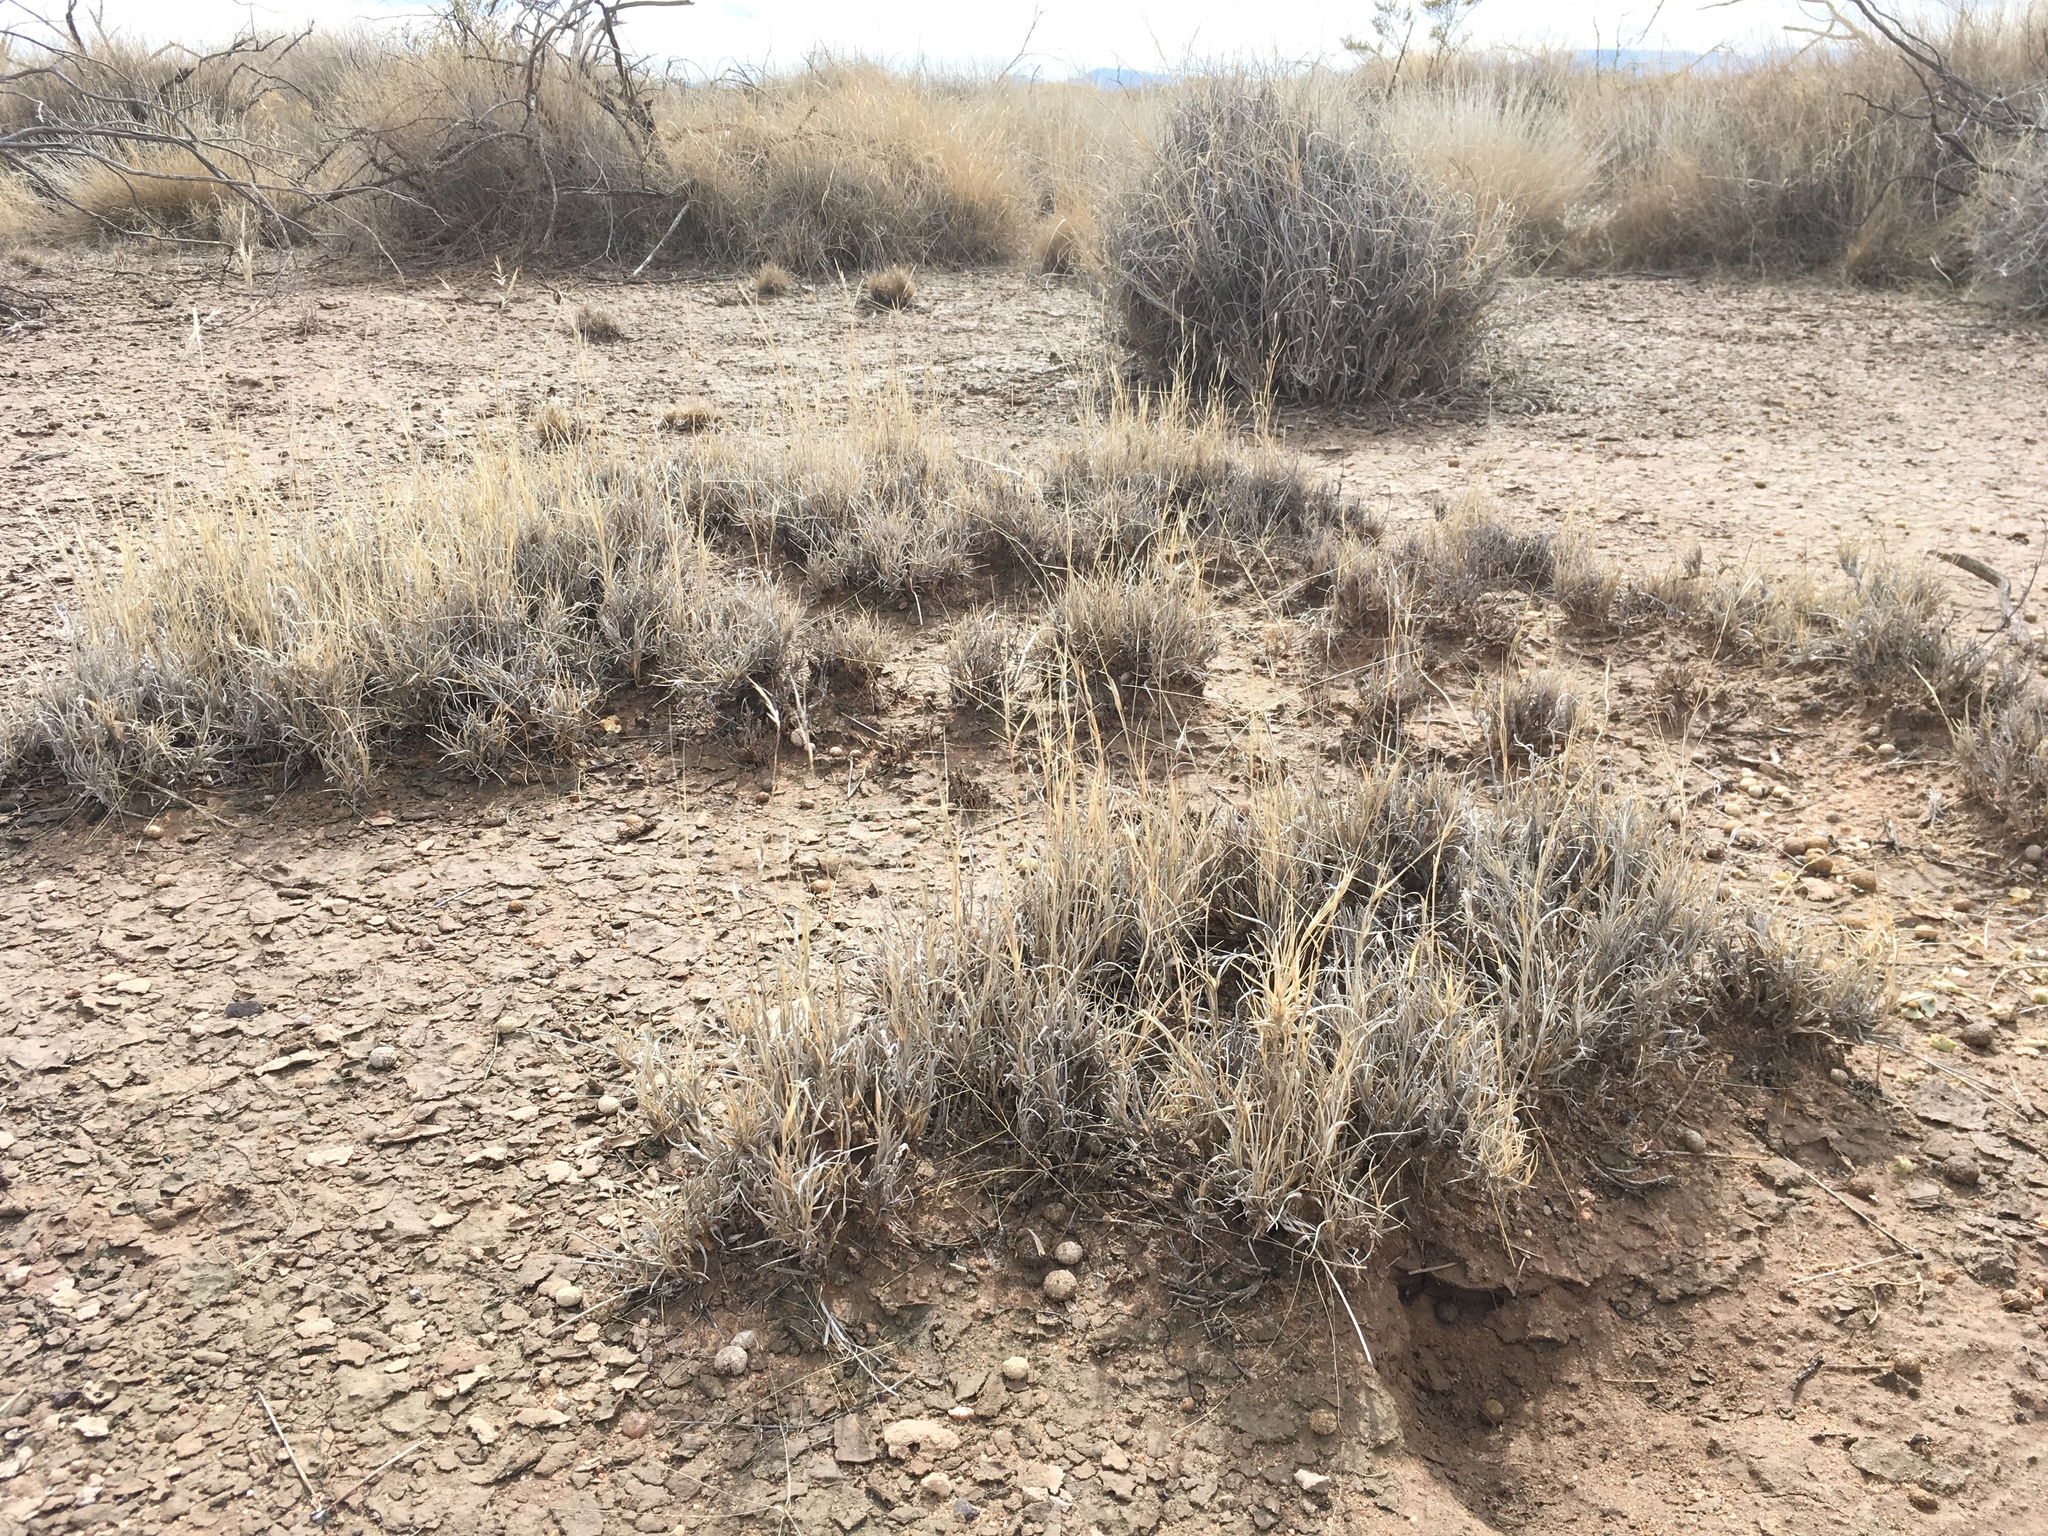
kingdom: Plantae
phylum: Tracheophyta
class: Liliopsida
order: Poales
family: Poaceae
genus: Scleropogon
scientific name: Scleropogon brevifolius
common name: Burro grass
